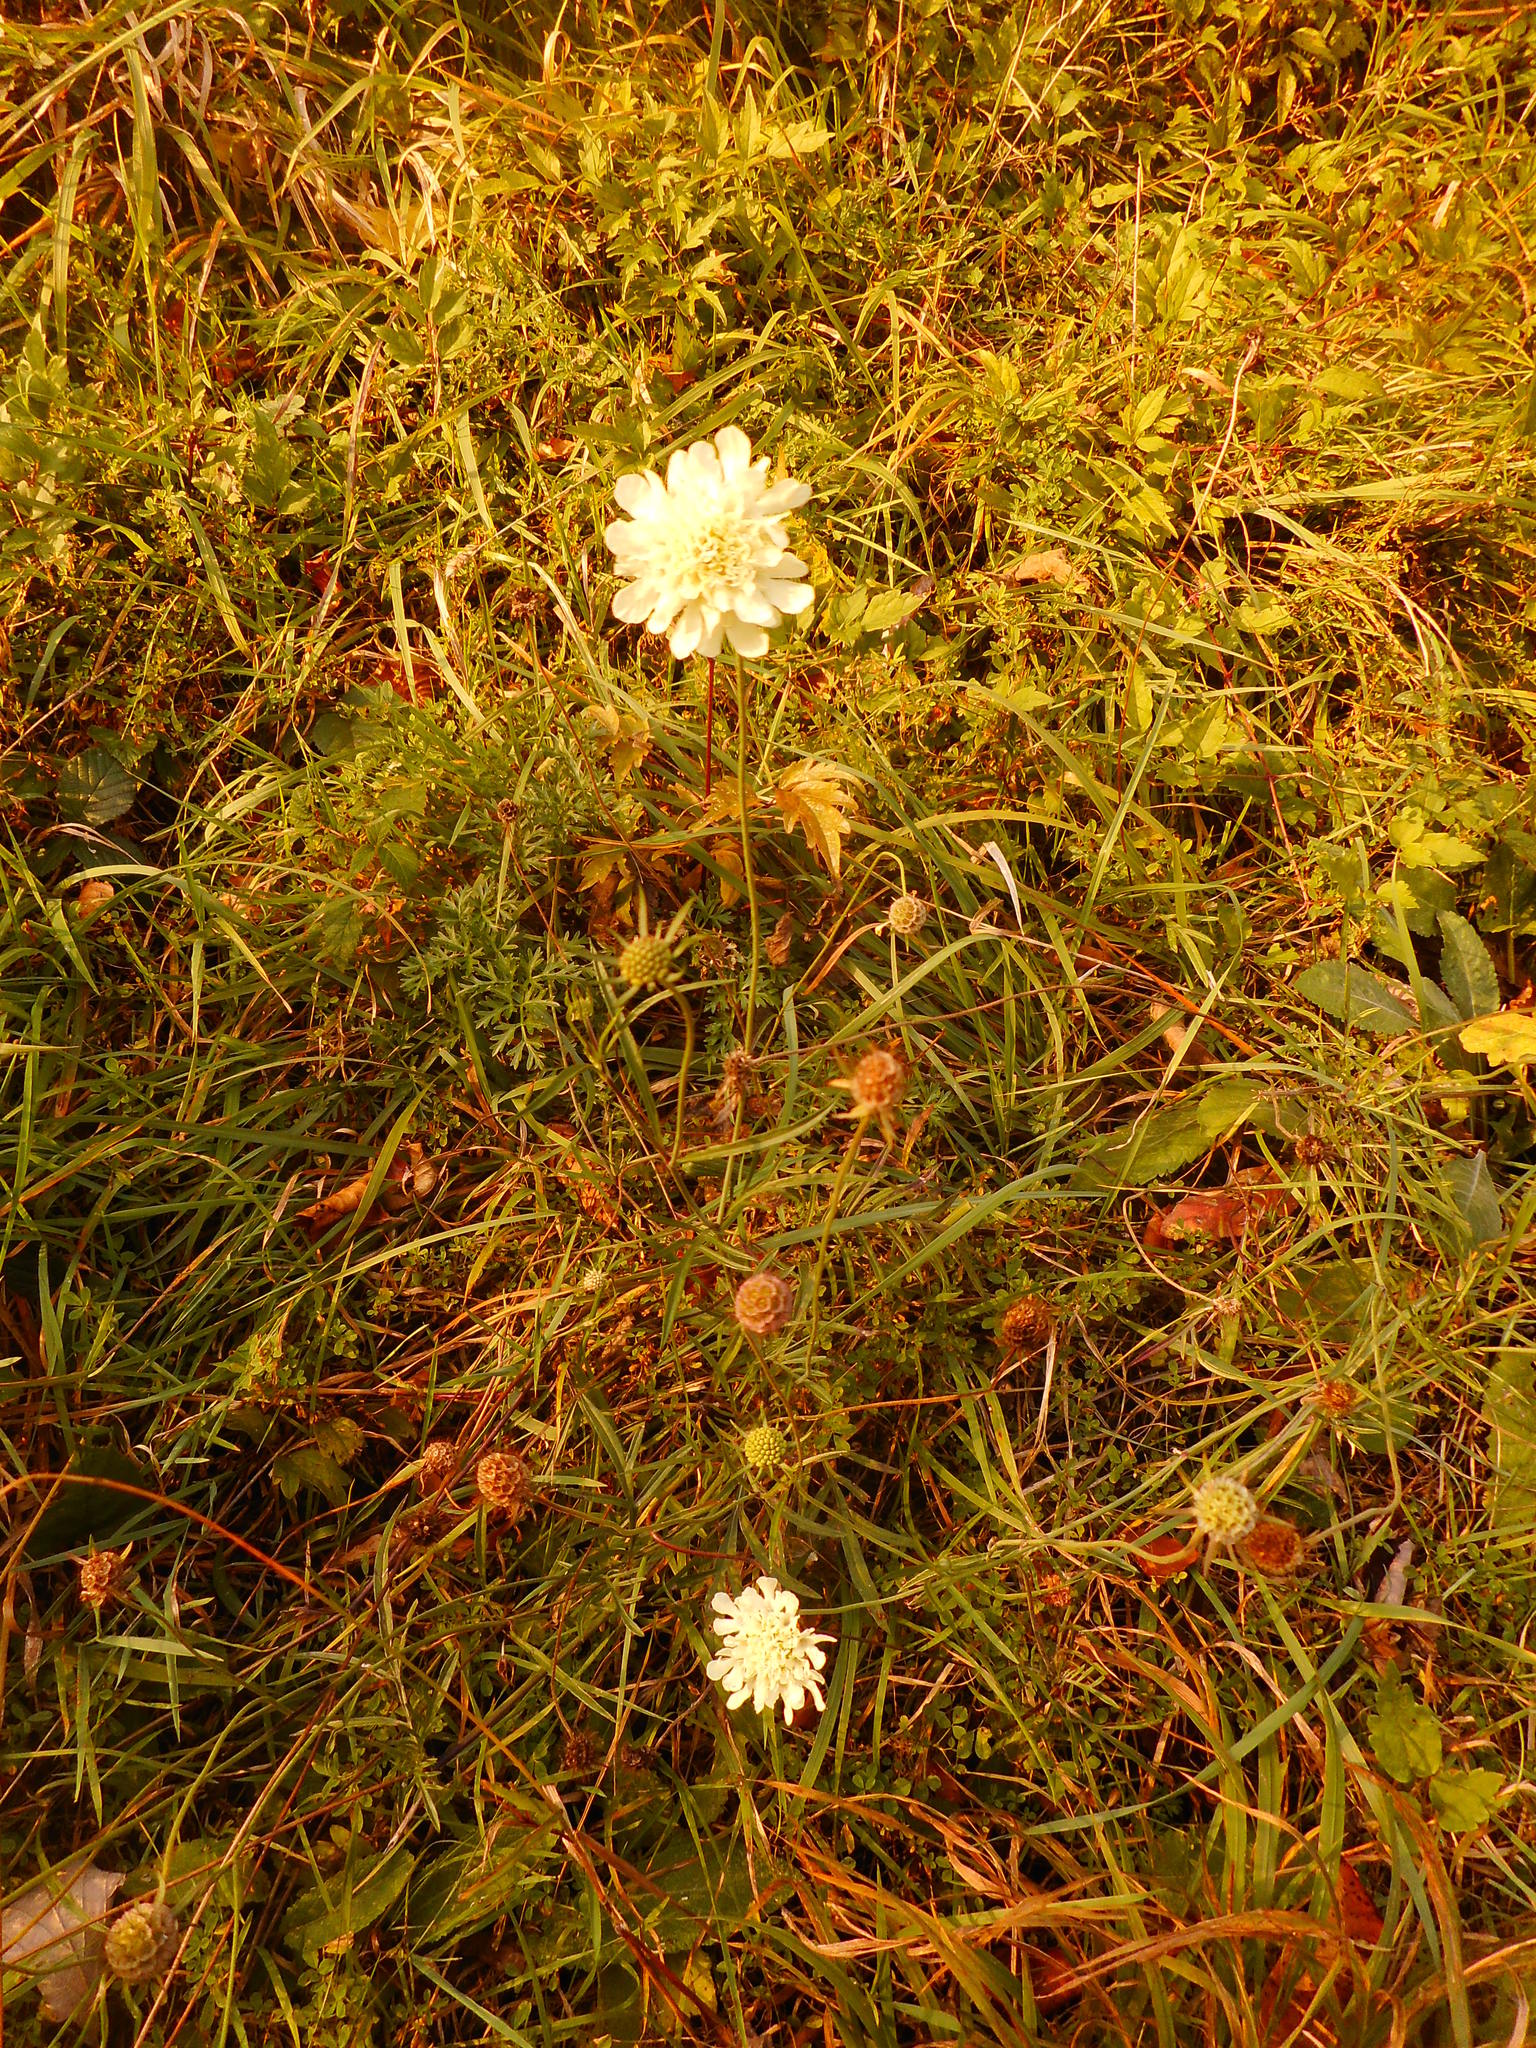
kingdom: Plantae
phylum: Tracheophyta
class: Magnoliopsida
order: Dipsacales
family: Caprifoliaceae
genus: Scabiosa
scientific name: Scabiosa ochroleuca
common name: Cream pincushions
